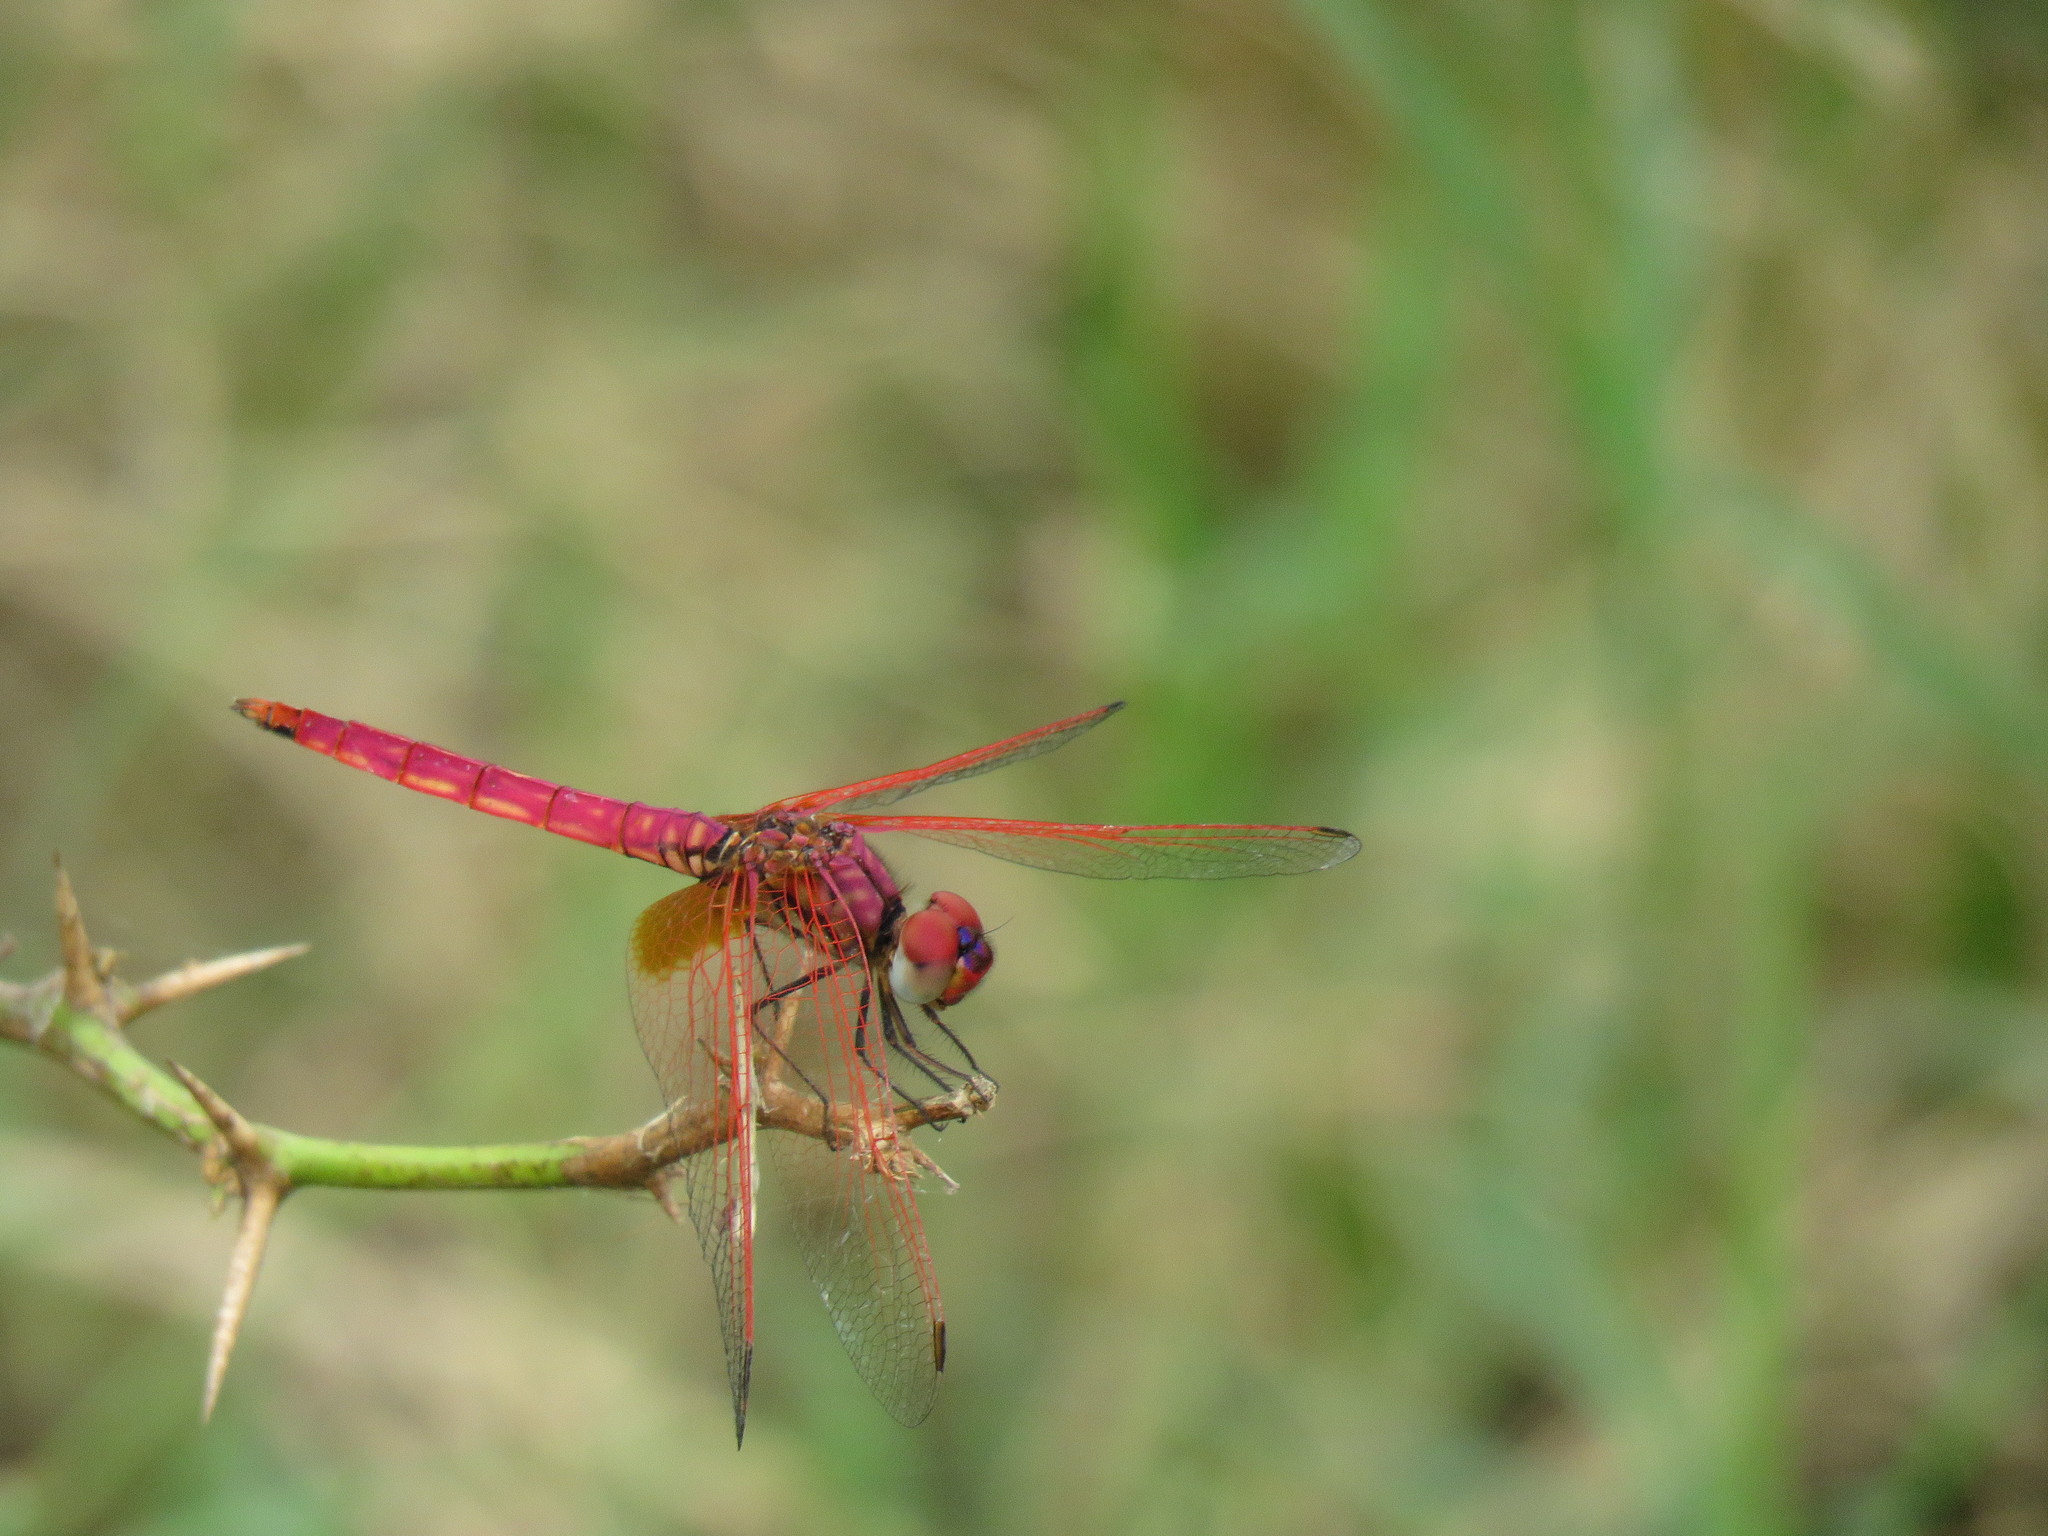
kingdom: Animalia
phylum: Arthropoda
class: Insecta
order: Odonata
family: Libellulidae
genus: Trithemis
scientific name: Trithemis aurora
